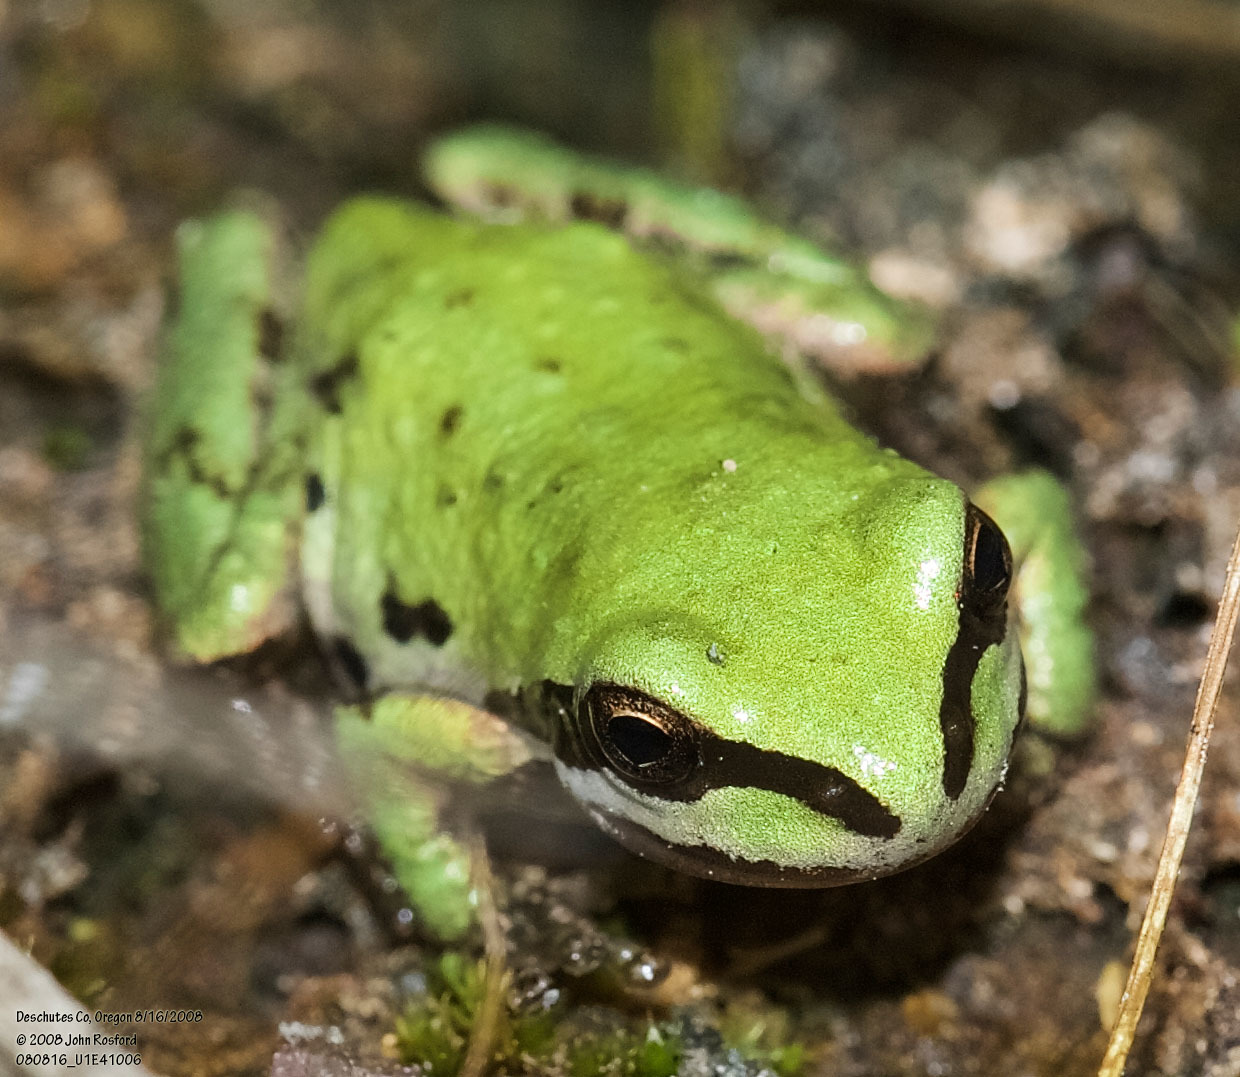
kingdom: Animalia
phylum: Chordata
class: Amphibia
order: Anura
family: Hylidae
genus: Pseudacris
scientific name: Pseudacris regilla
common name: Pacific chorus frog
